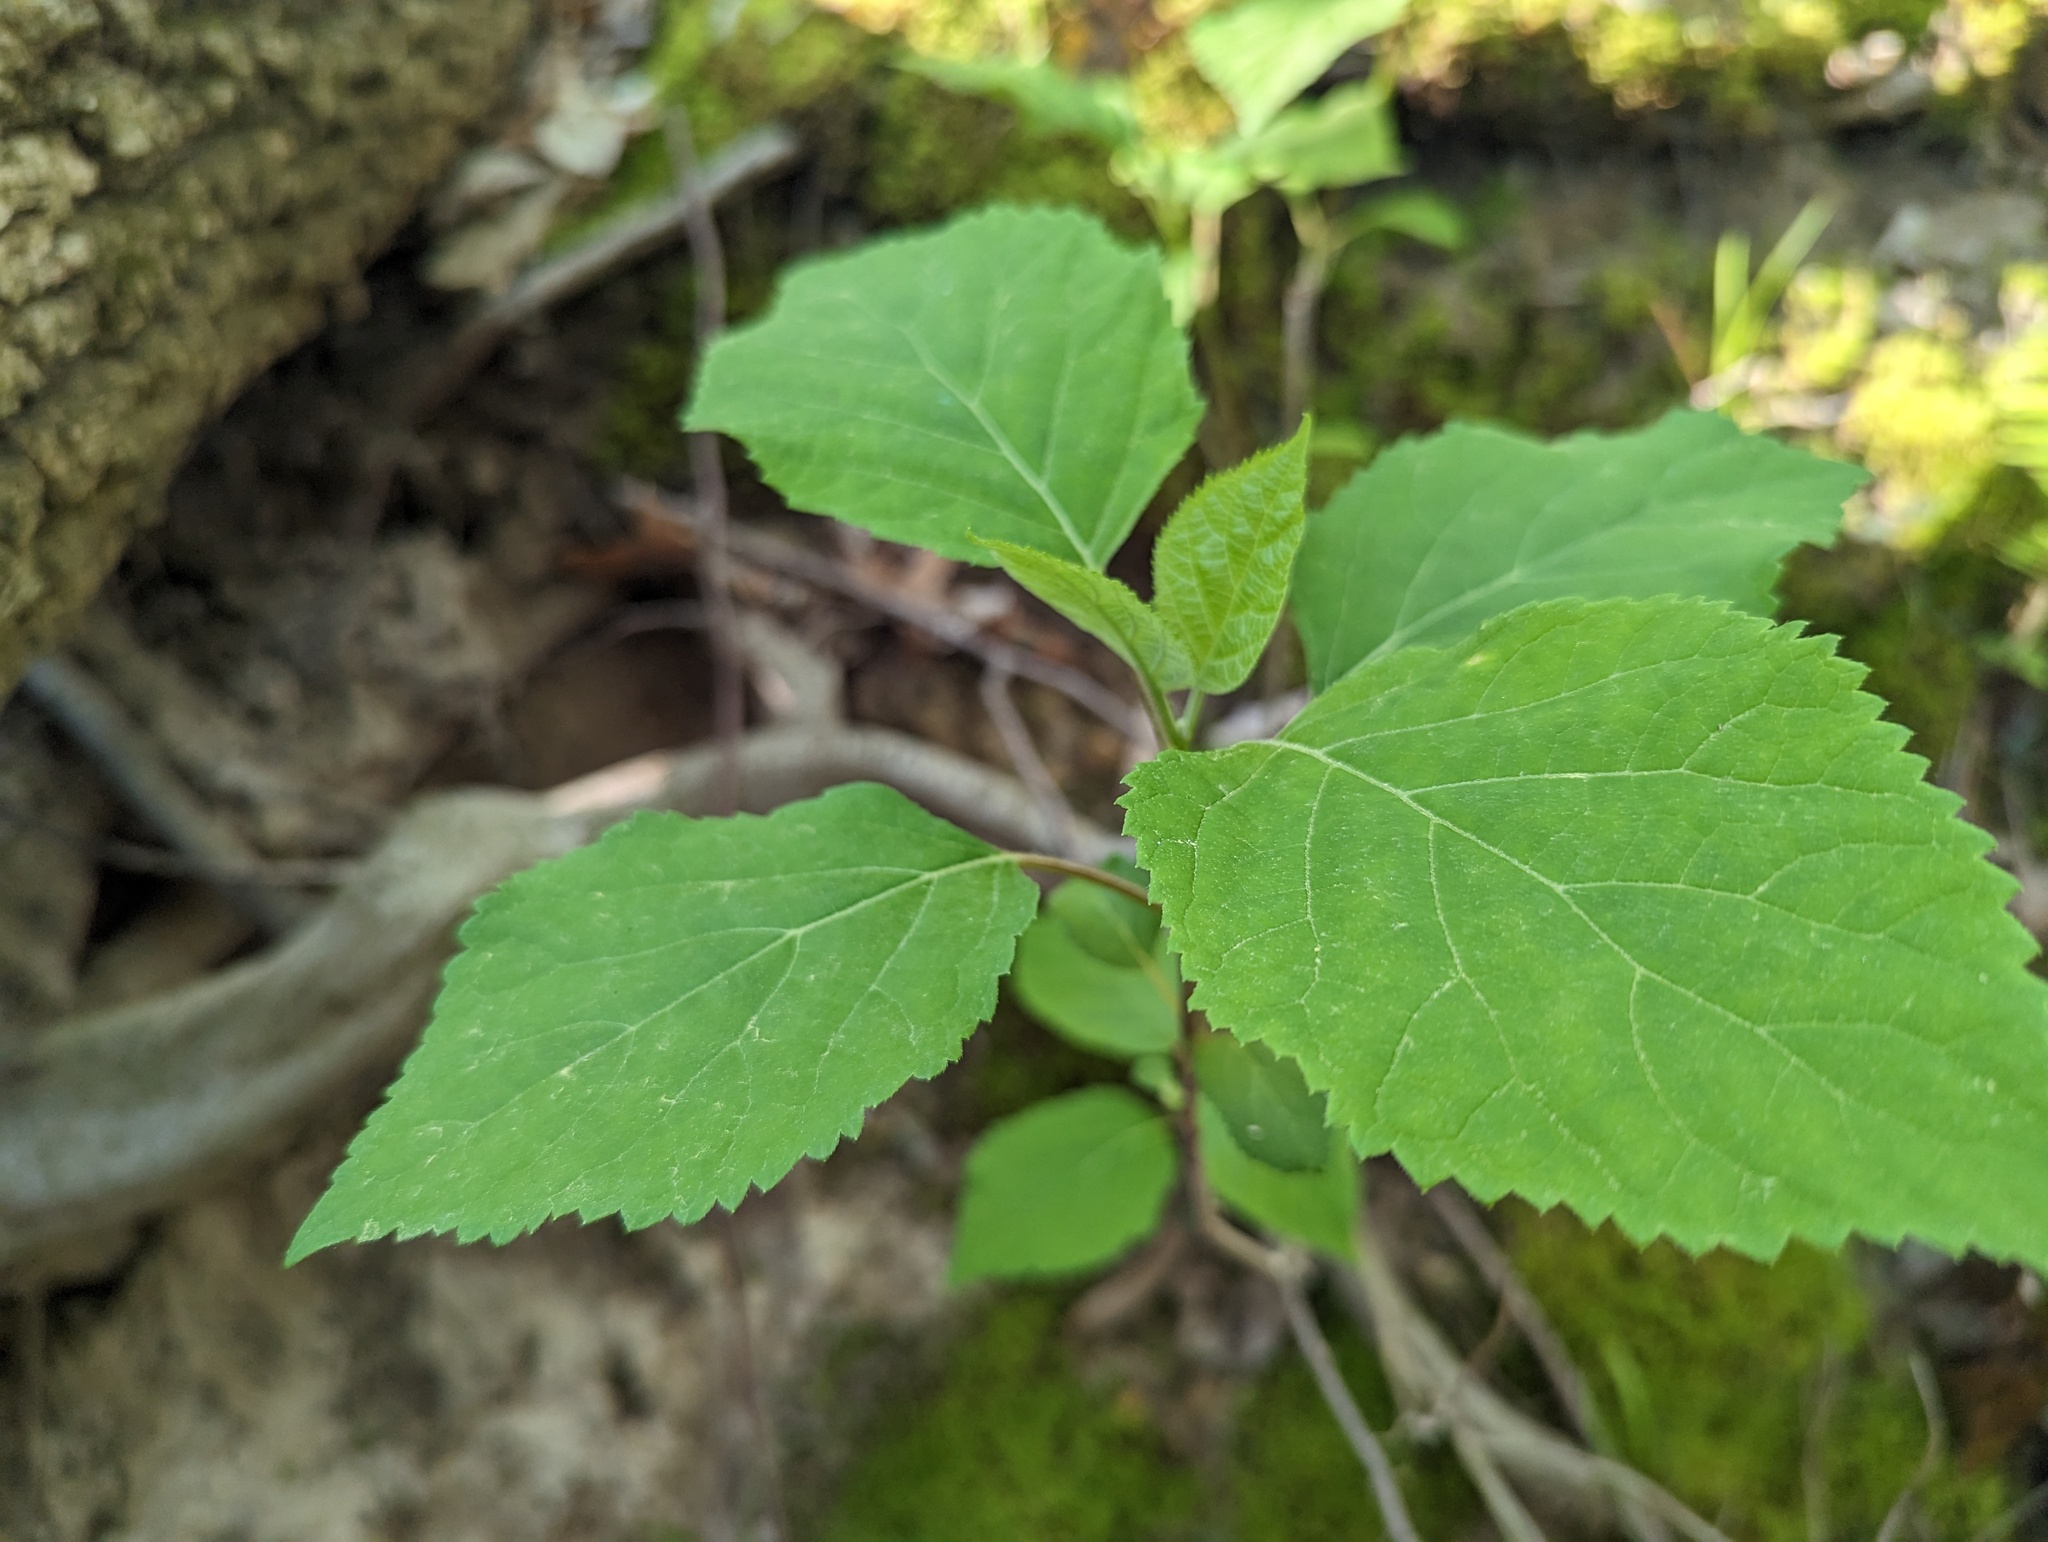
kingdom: Plantae
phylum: Tracheophyta
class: Magnoliopsida
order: Cornales
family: Hydrangeaceae
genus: Hydrangea
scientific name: Hydrangea arborescens
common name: Sevenbark
